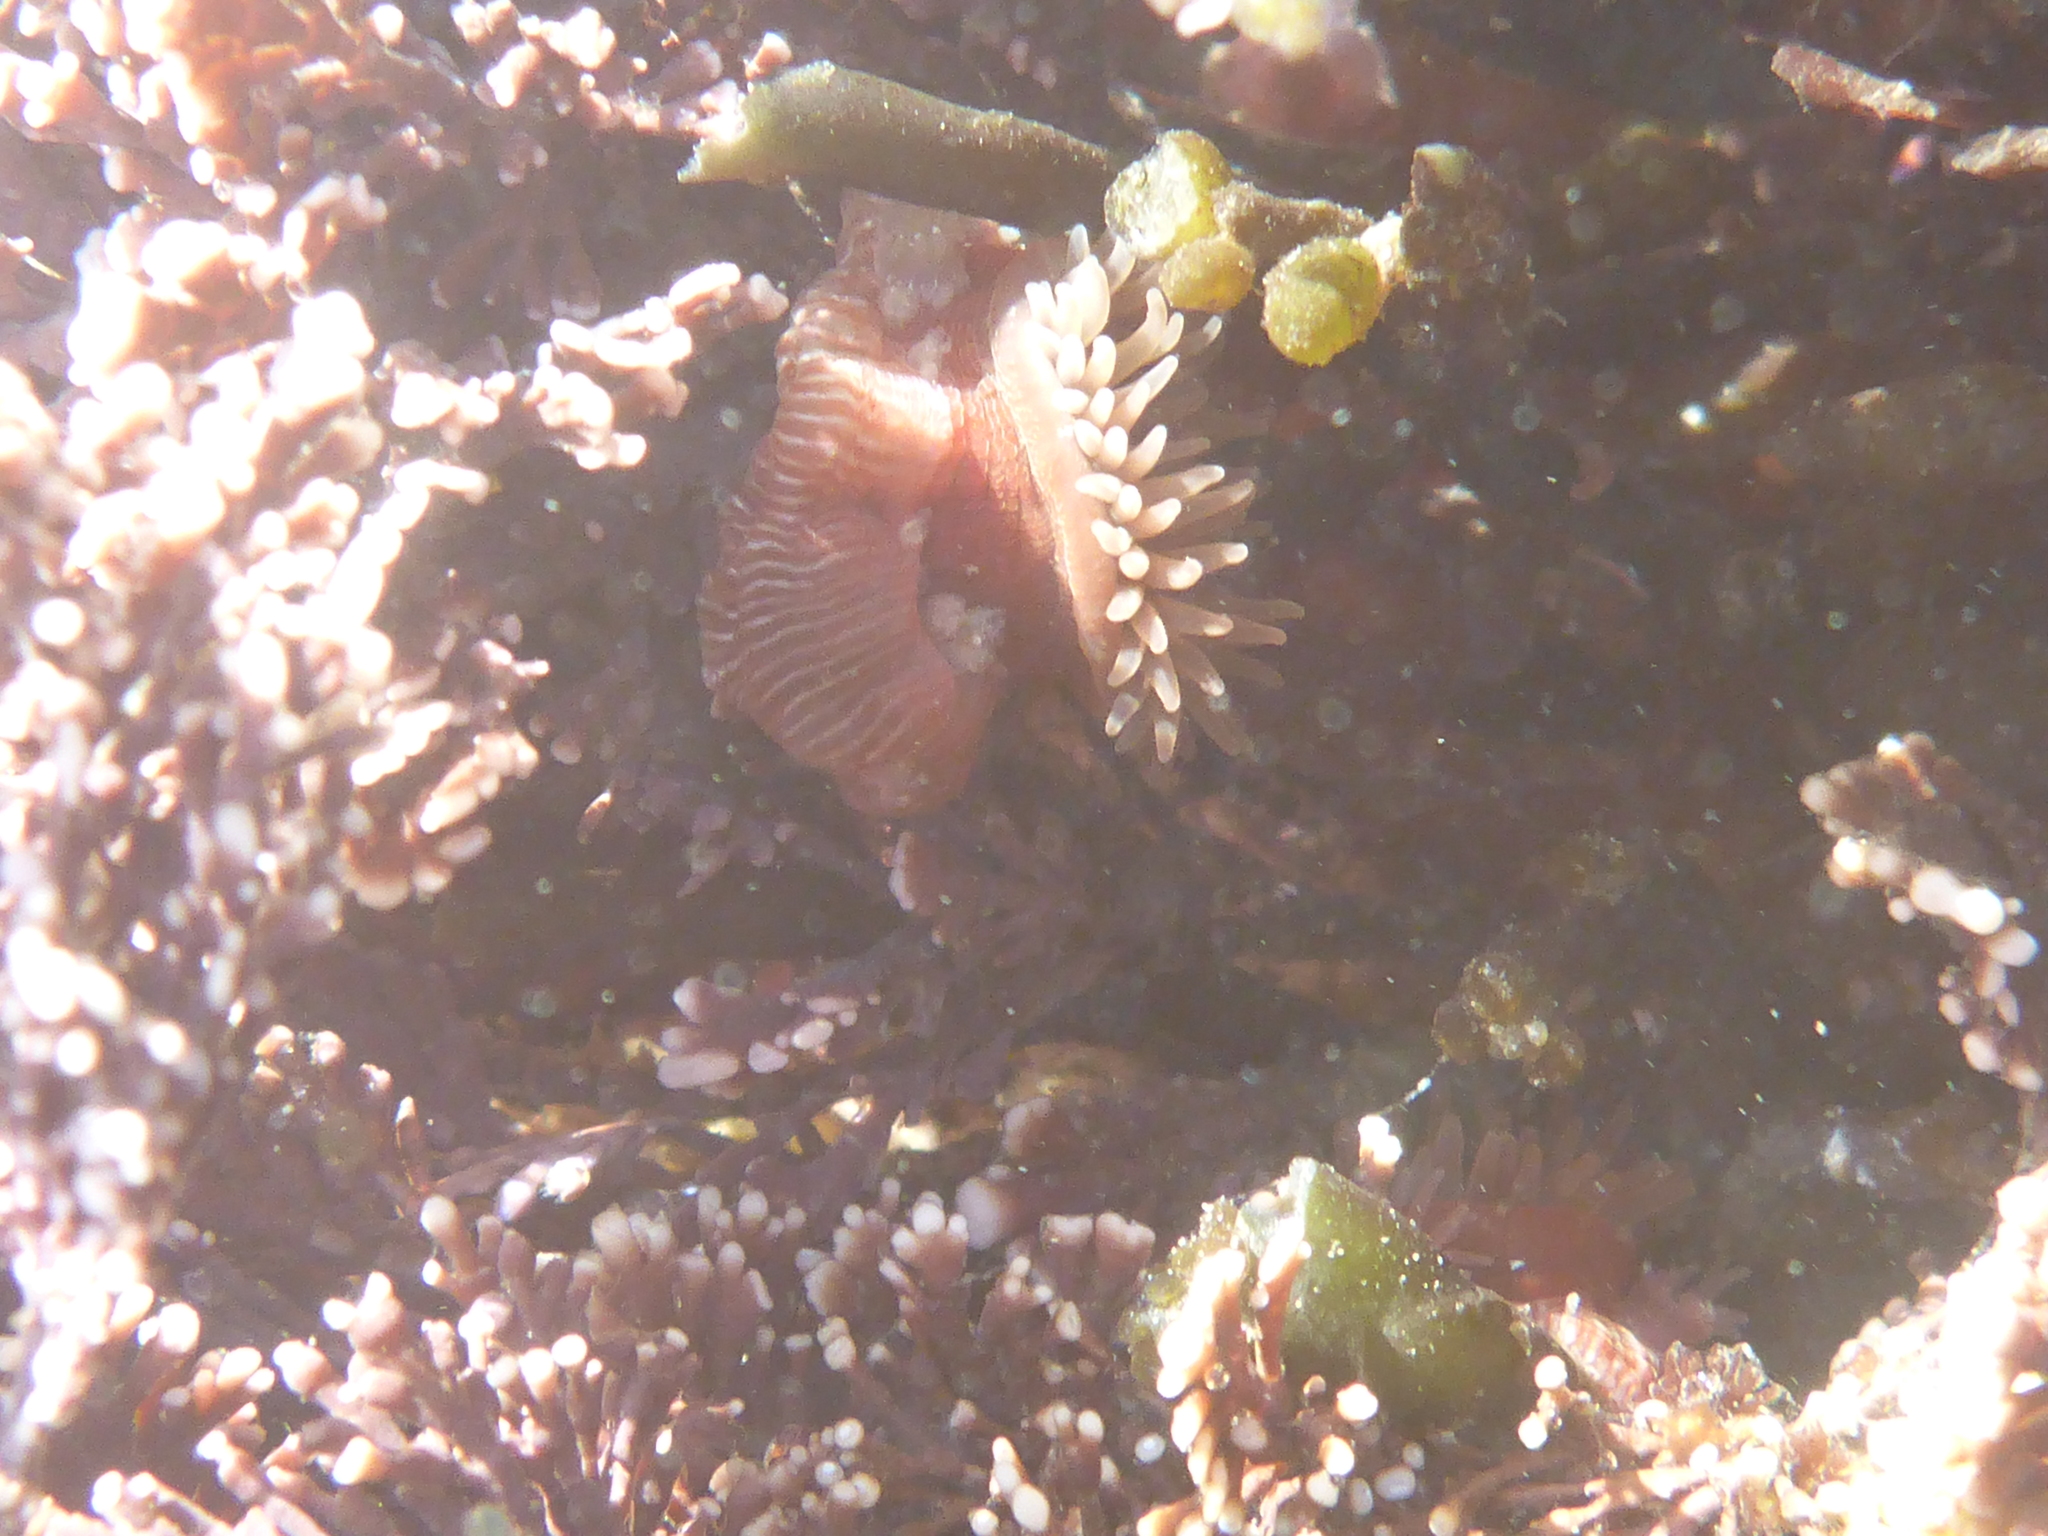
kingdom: Animalia
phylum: Cnidaria
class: Anthozoa
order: Actiniaria
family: Actiniidae
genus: Epiactis
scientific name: Epiactis prolifera
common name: Brooding anemone
